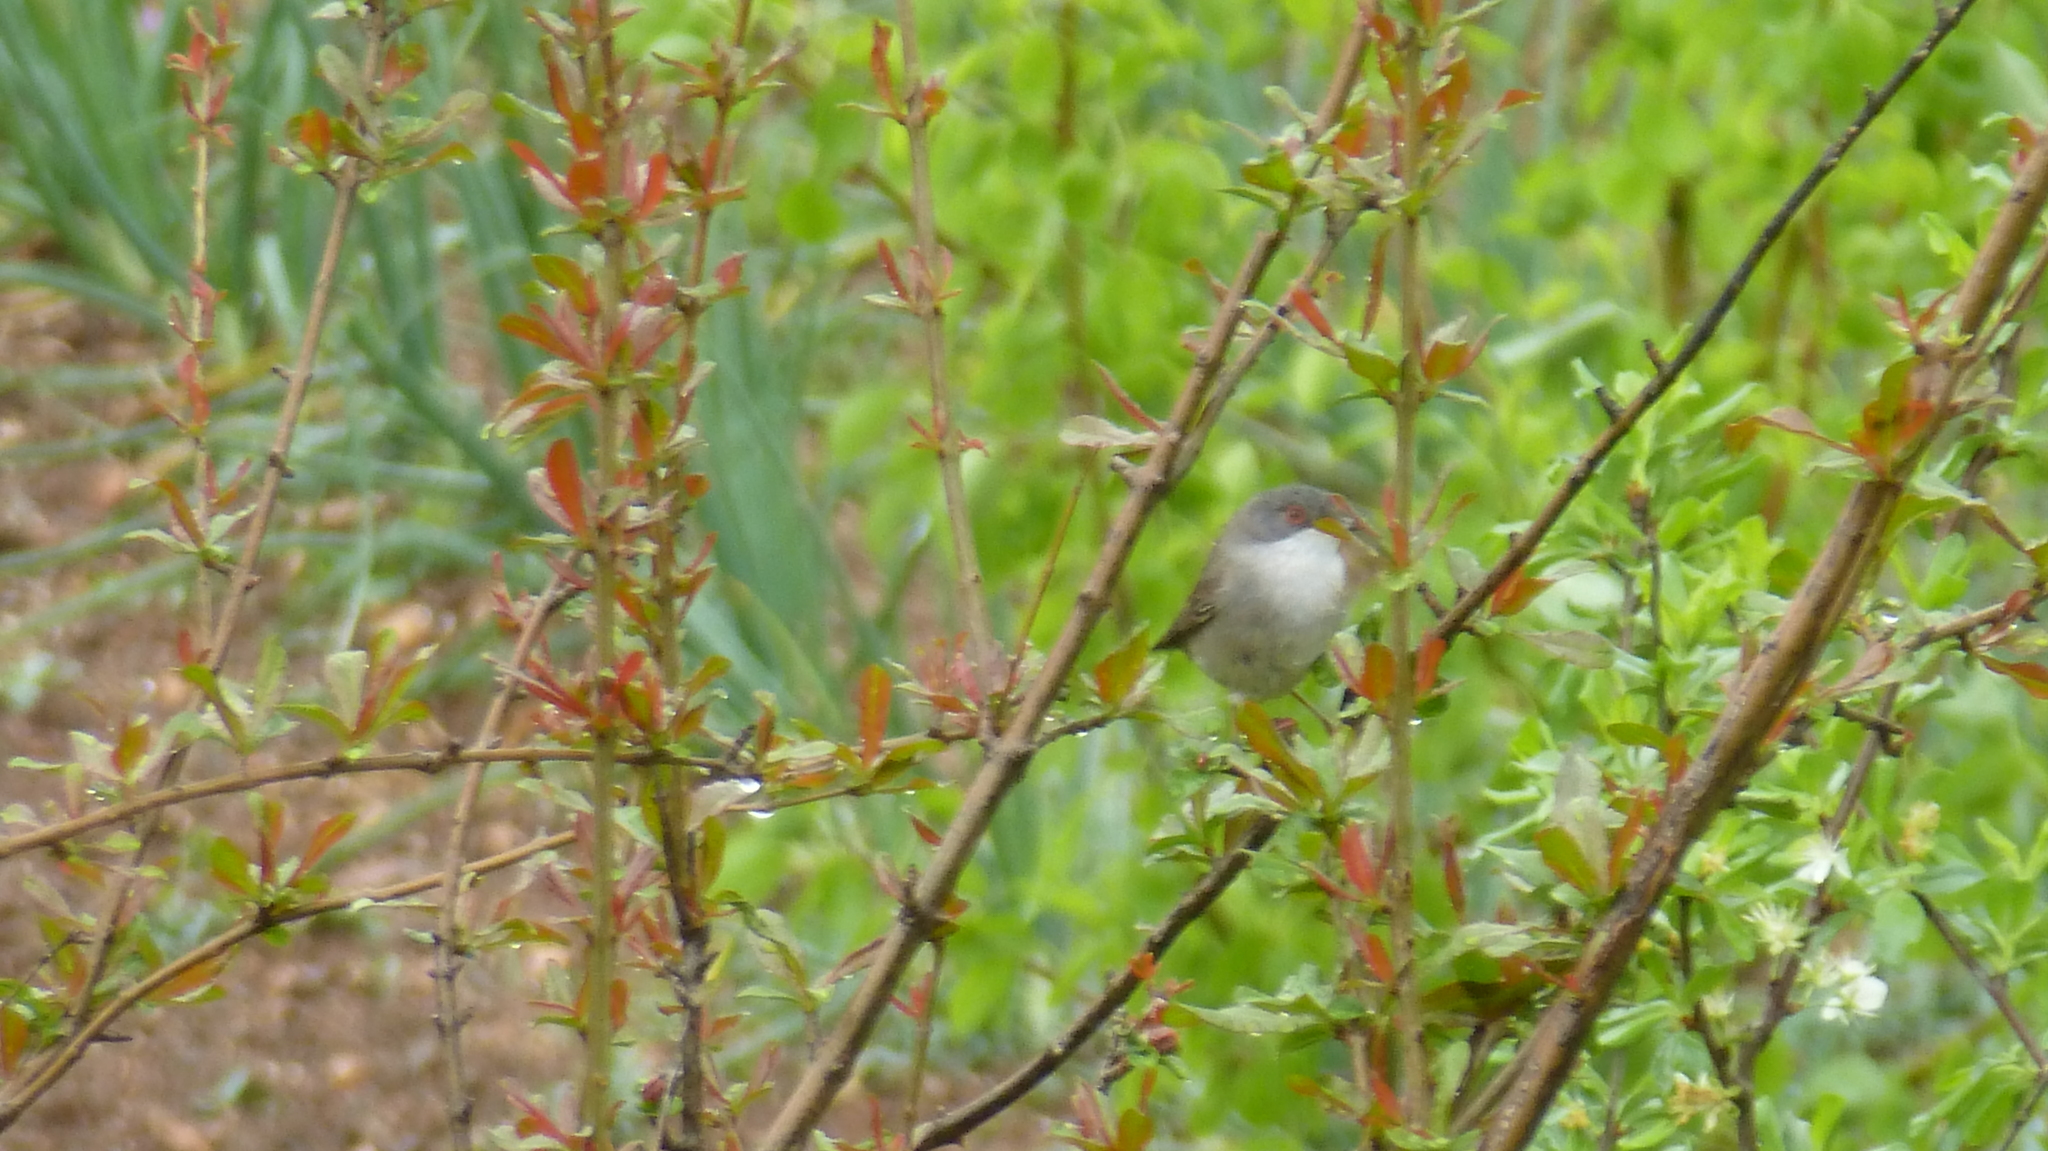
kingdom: Animalia
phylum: Chordata
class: Aves
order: Passeriformes
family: Sylviidae
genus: Curruca
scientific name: Curruca melanocephala
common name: Sardinian warbler
